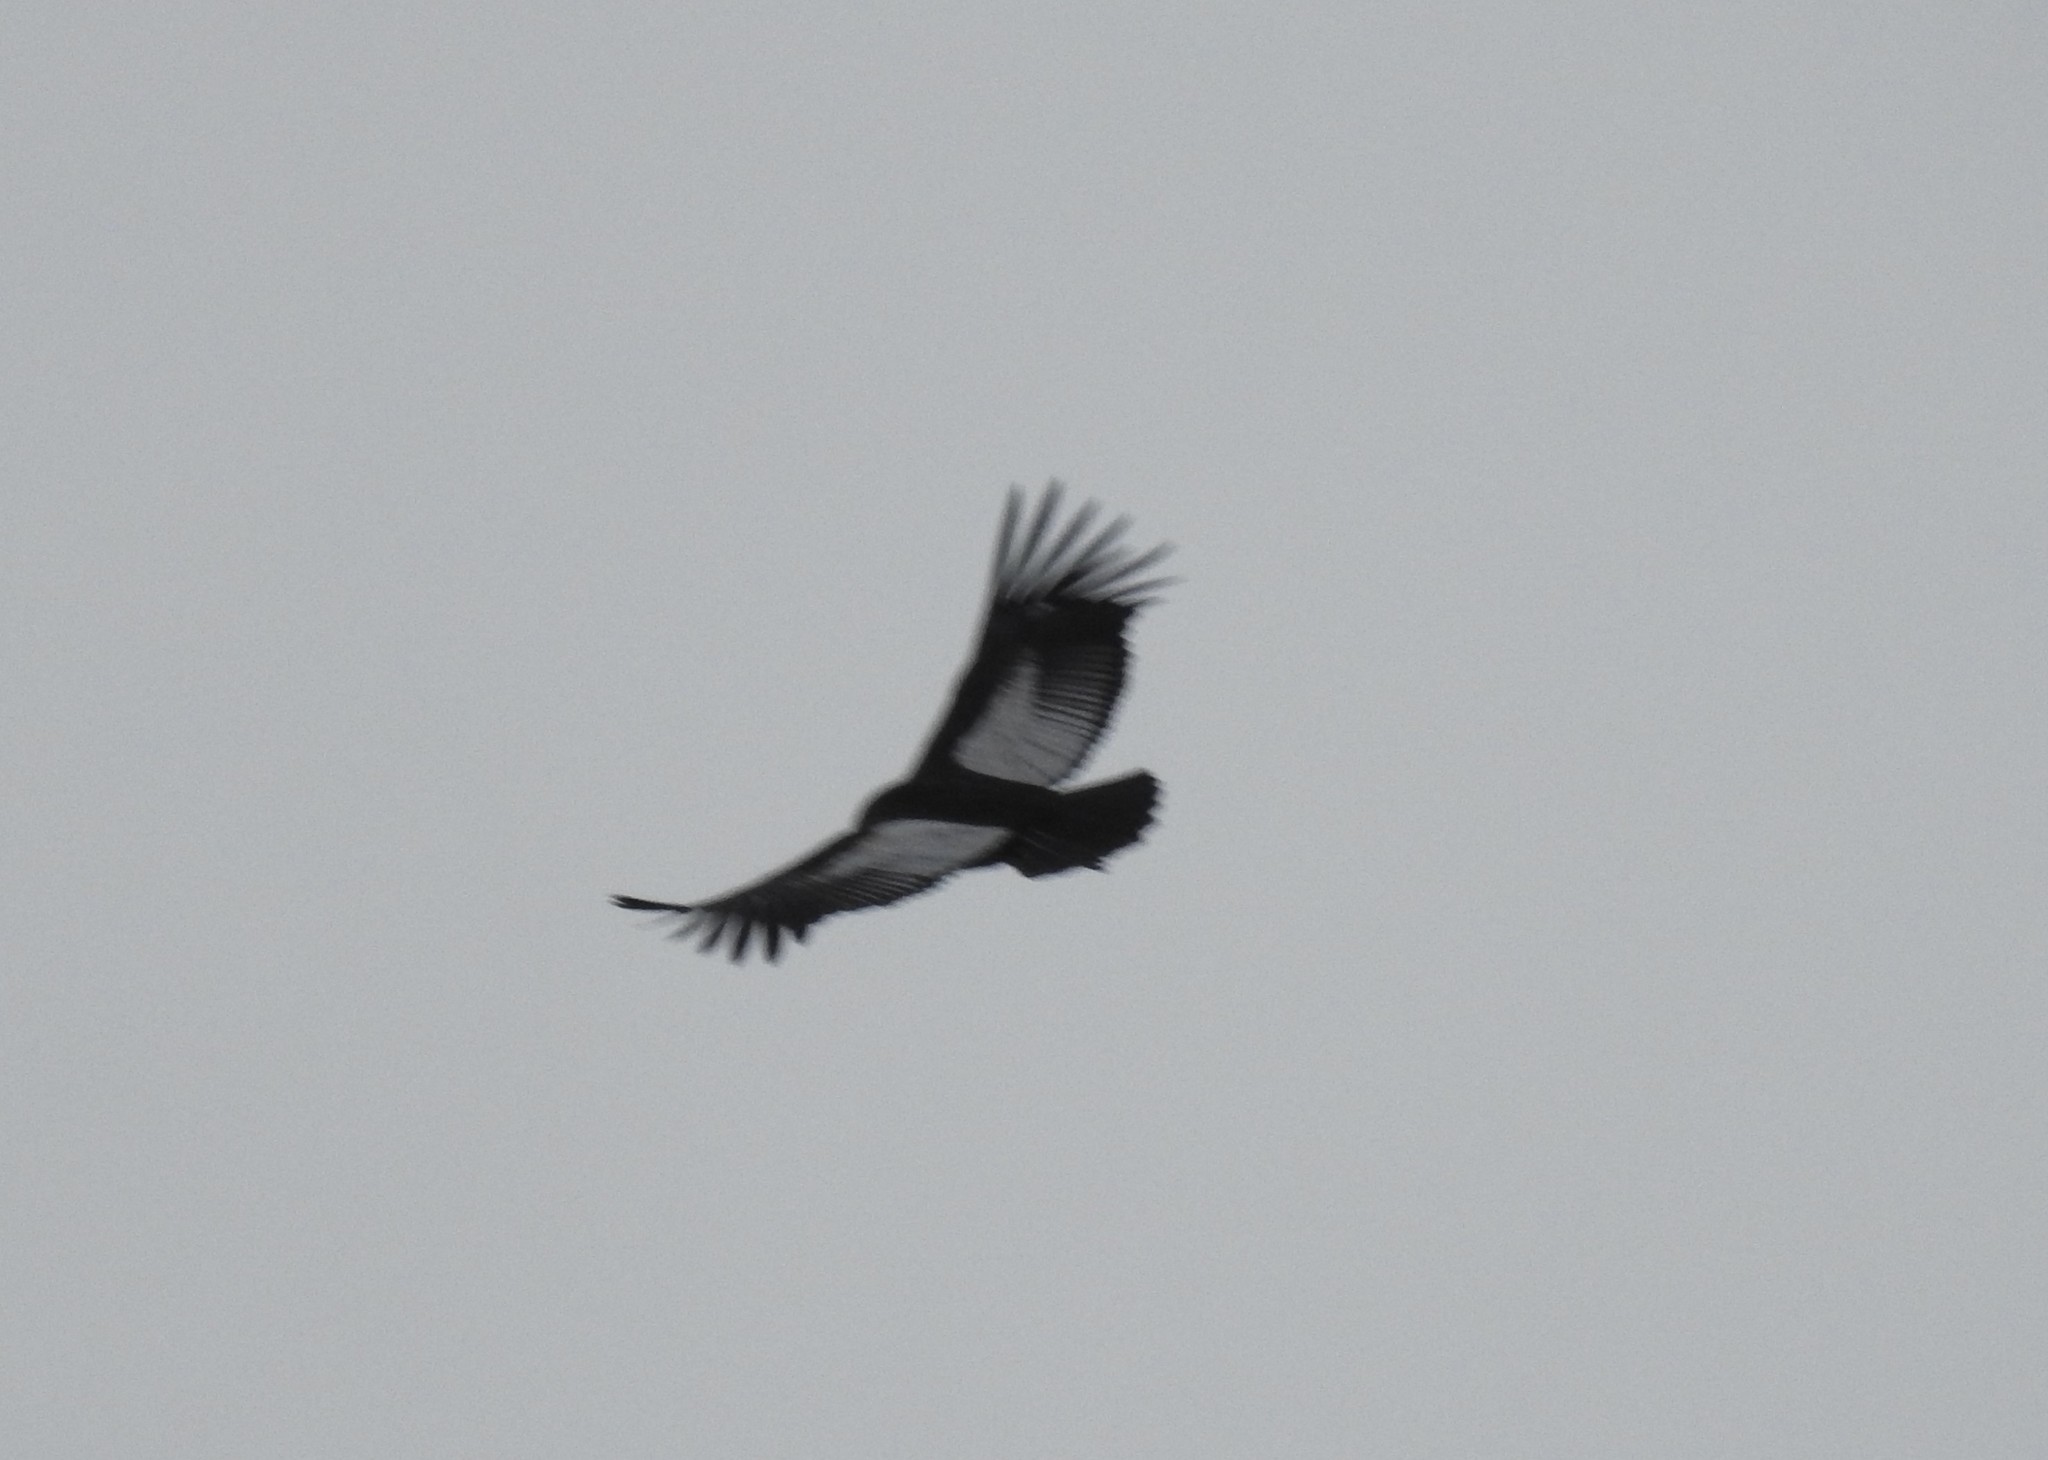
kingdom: Animalia
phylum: Chordata
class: Aves
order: Accipitriformes
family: Cathartidae
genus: Vultur
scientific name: Vultur gryphus
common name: Andean condor
